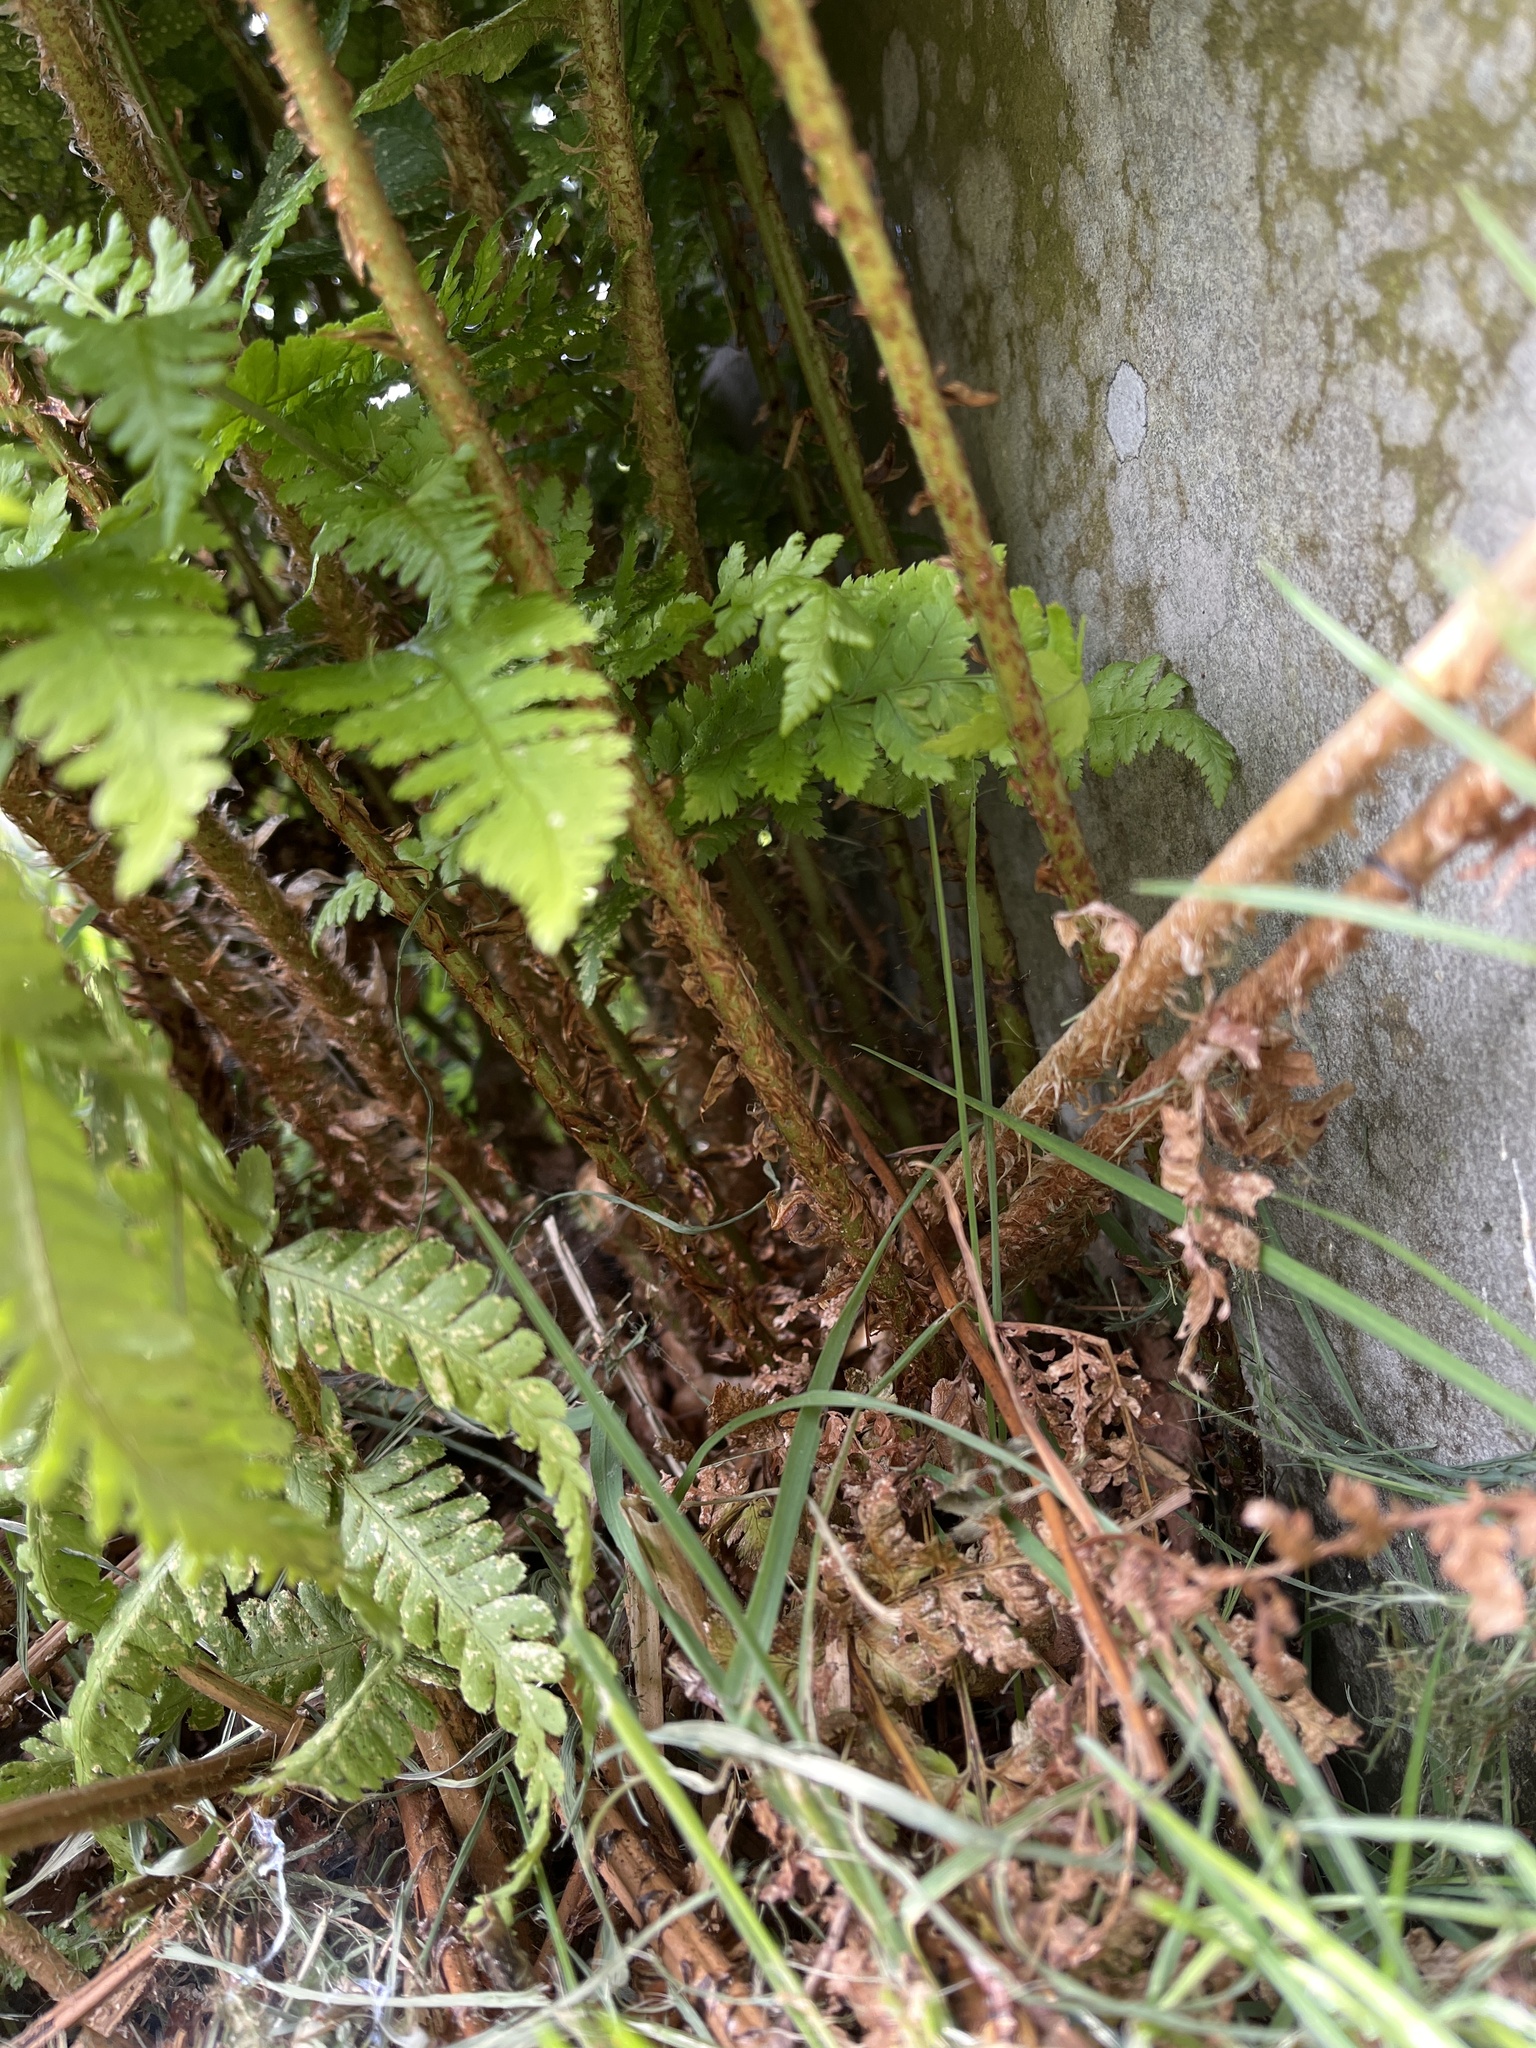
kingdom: Plantae
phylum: Tracheophyta
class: Polypodiopsida
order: Polypodiales
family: Dryopteridaceae
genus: Dryopteris
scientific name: Dryopteris dilatata
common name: Broad buckler-fern
